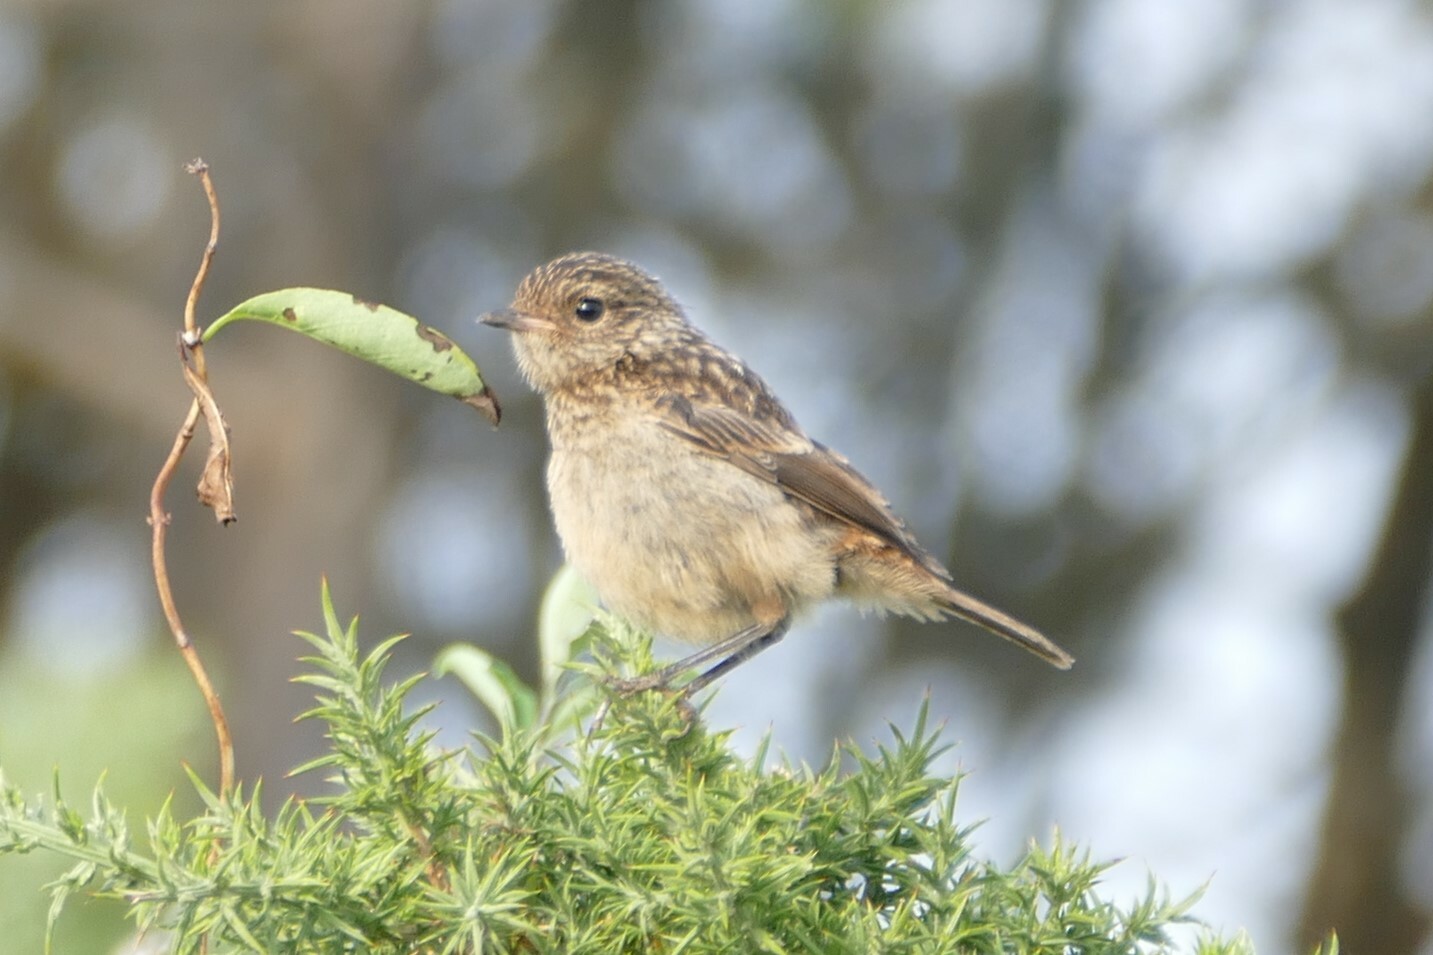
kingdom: Animalia
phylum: Chordata
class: Aves
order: Passeriformes
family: Muscicapidae
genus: Saxicola
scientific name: Saxicola rubicola
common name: European stonechat
